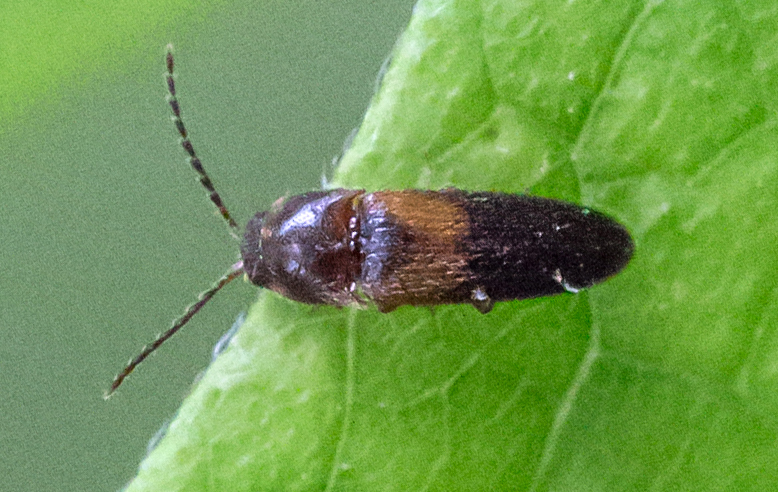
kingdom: Animalia
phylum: Arthropoda
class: Insecta
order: Coleoptera
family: Elateridae
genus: Ampedus
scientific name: Ampedus areolatus
